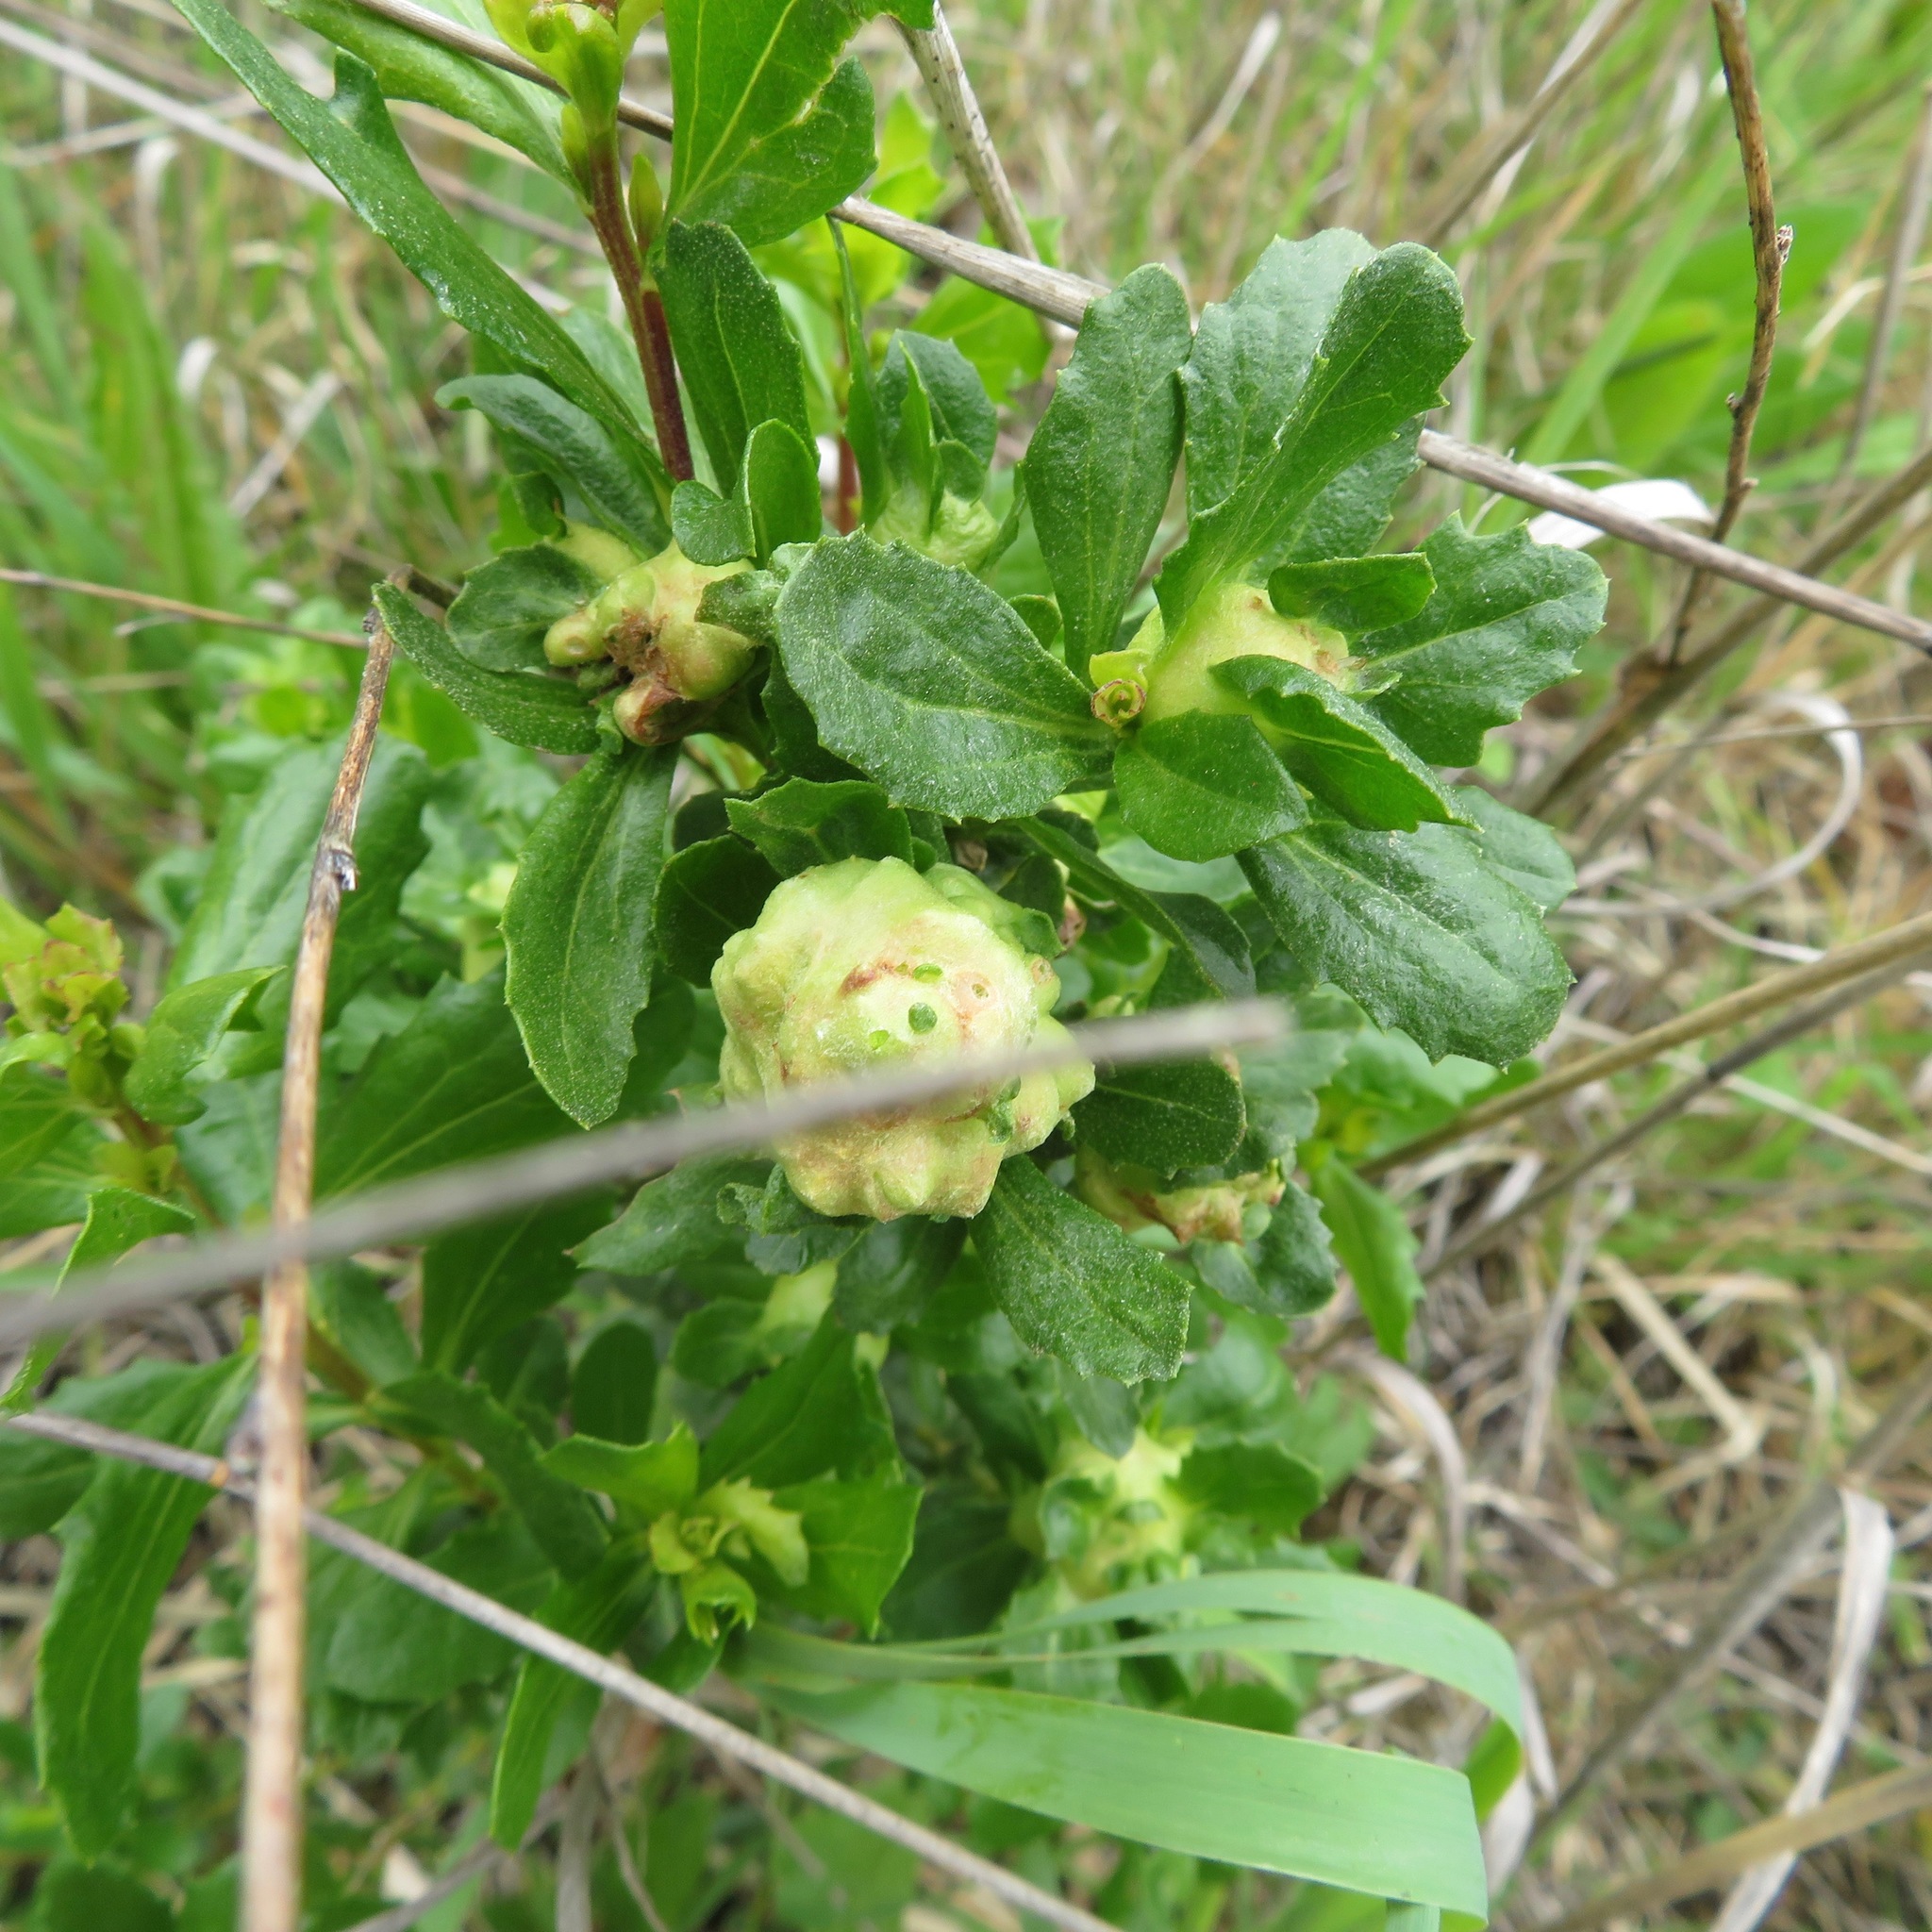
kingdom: Animalia
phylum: Arthropoda
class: Insecta
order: Diptera
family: Cecidomyiidae
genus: Rhopalomyia
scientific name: Rhopalomyia californica
